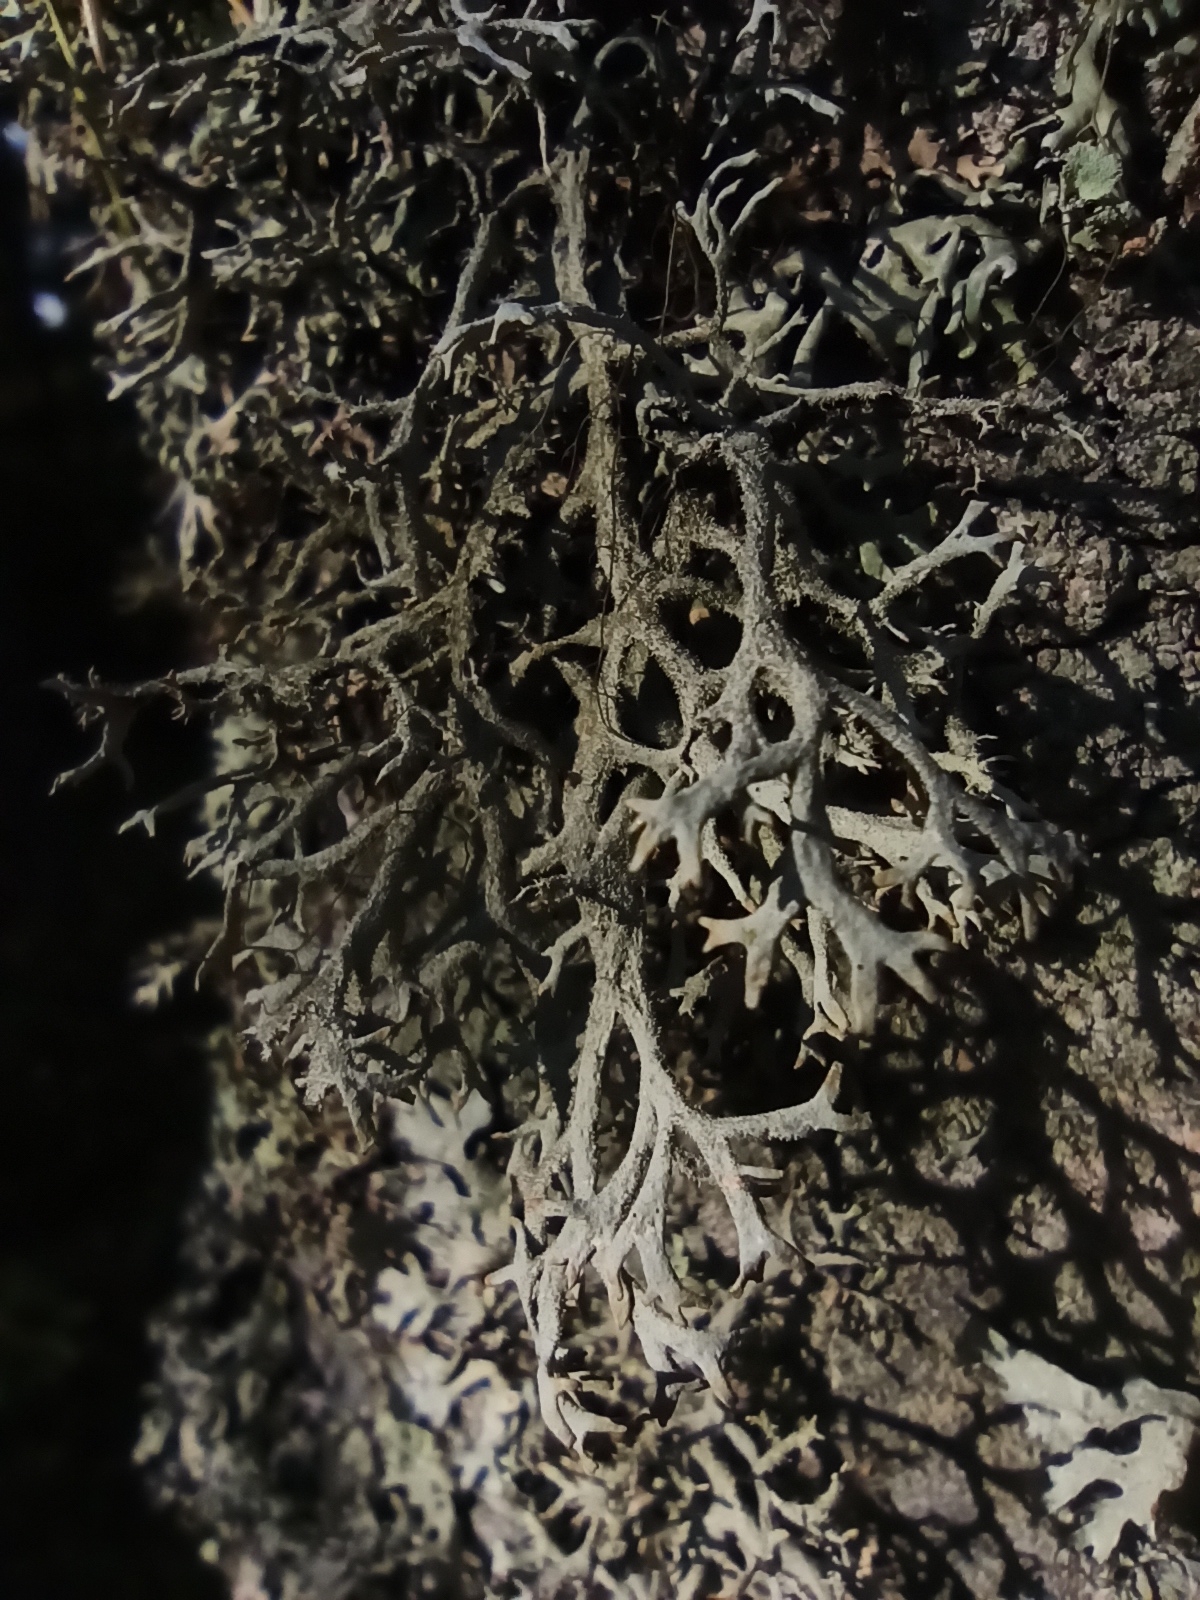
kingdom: Fungi
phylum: Ascomycota
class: Lecanoromycetes
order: Lecanorales
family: Parmeliaceae
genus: Pseudevernia
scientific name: Pseudevernia furfuracea
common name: Tree moss
